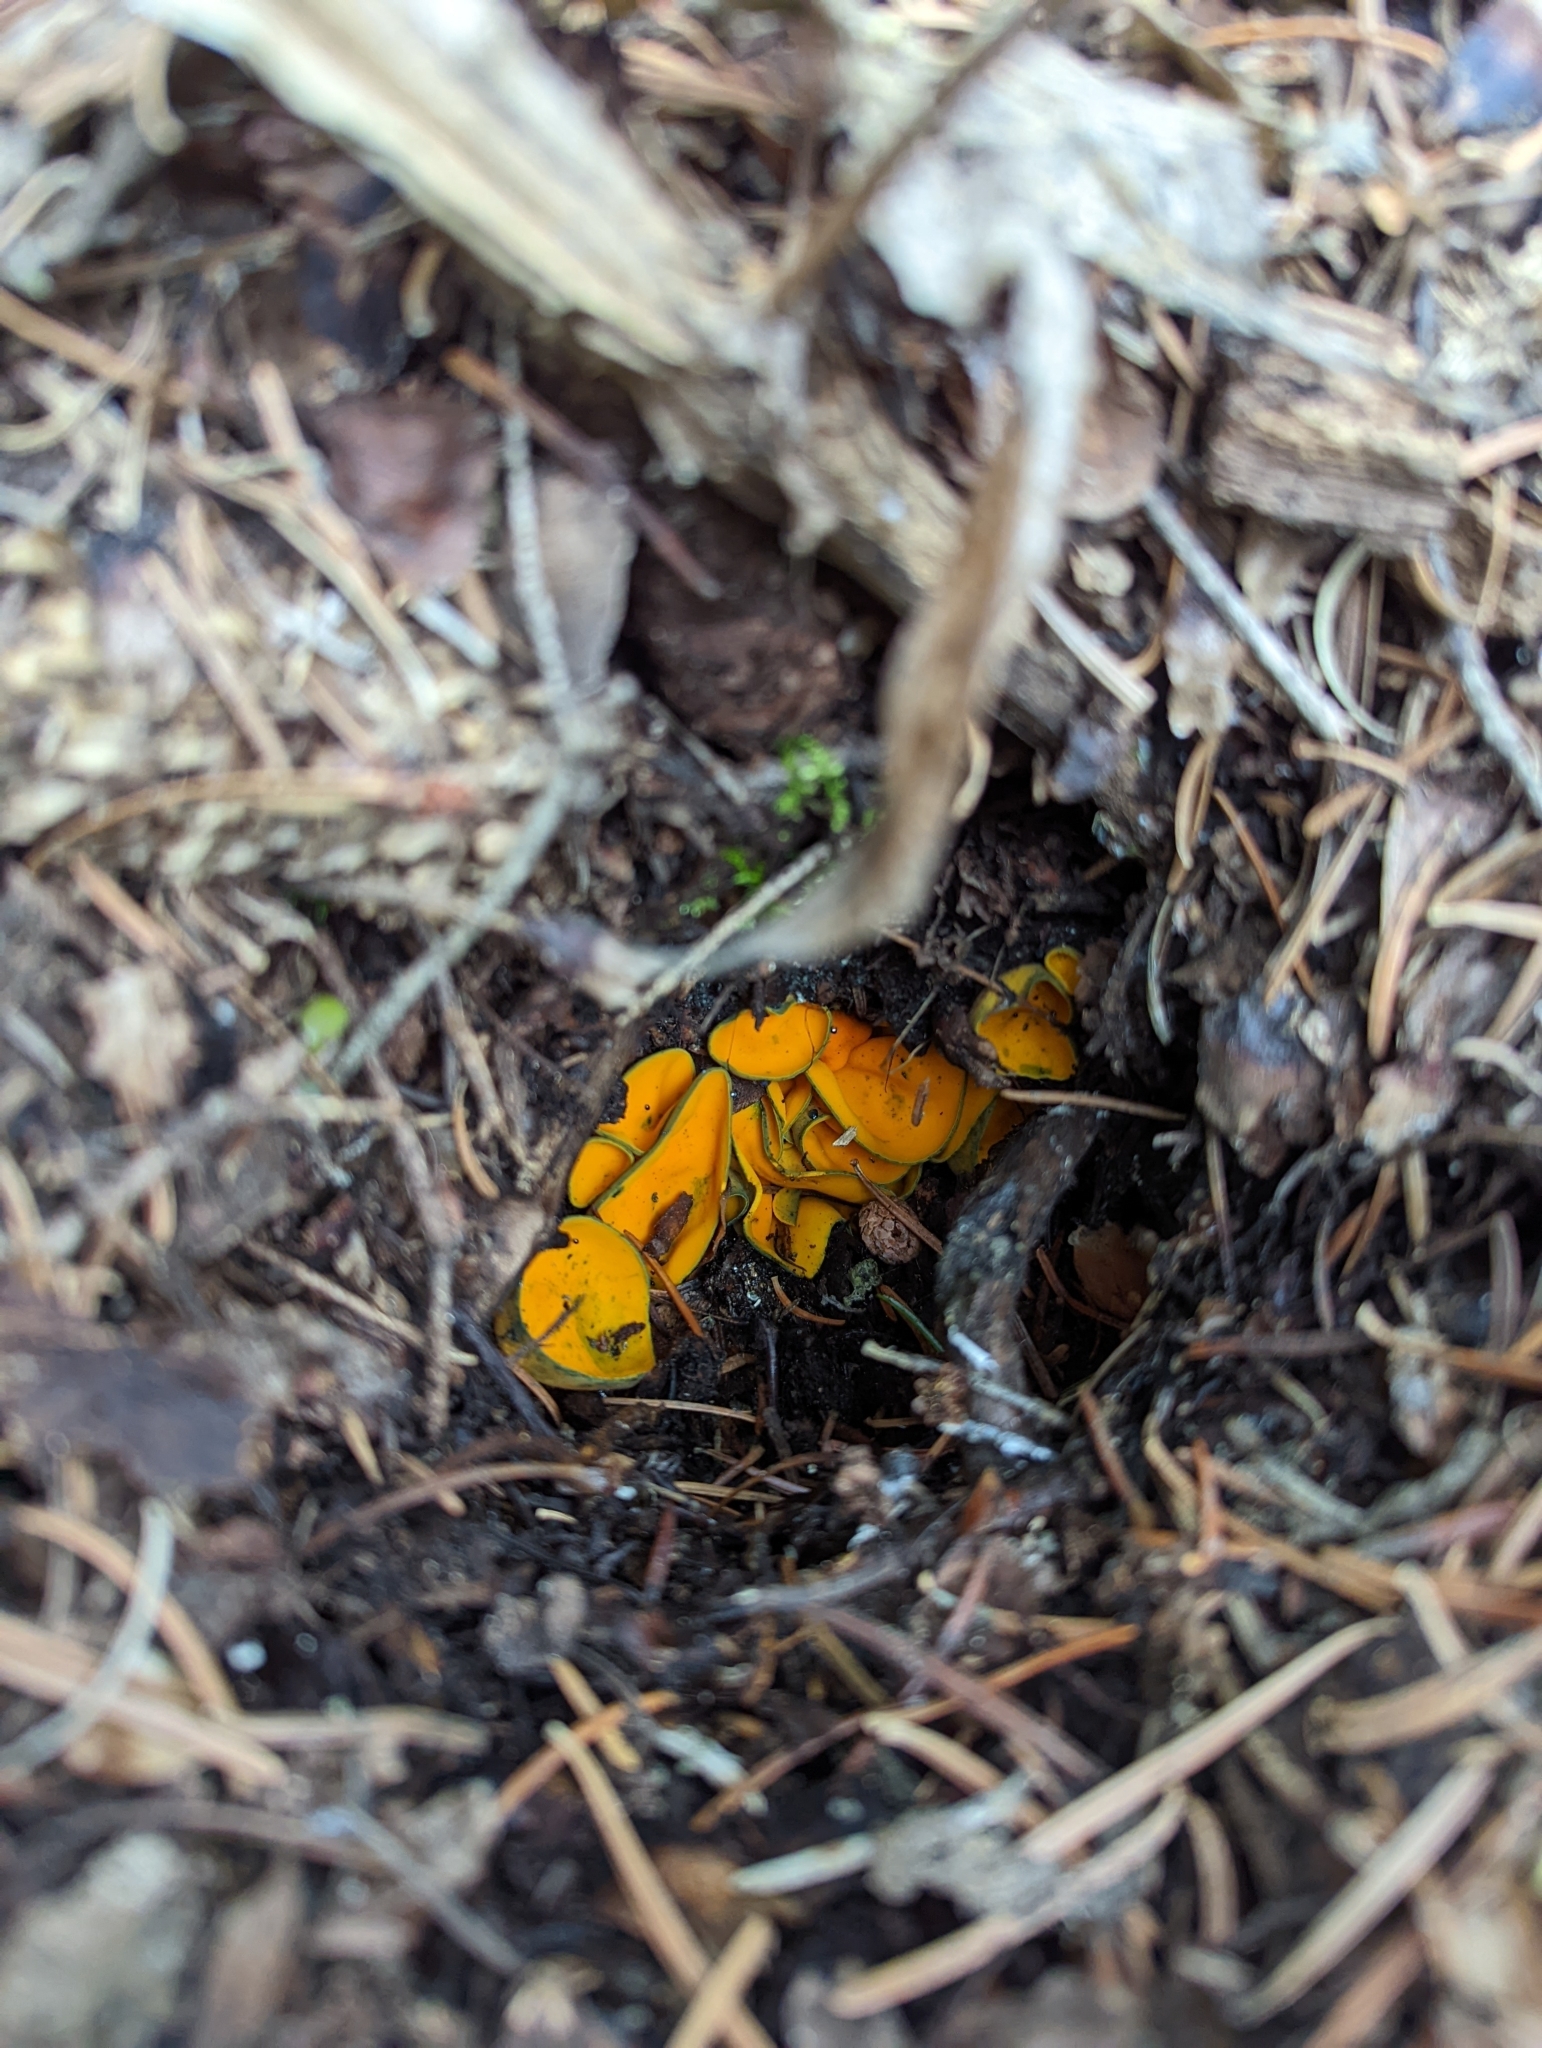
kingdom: Fungi
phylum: Ascomycota
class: Pezizomycetes
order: Pezizales
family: Caloscyphaceae
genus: Caloscypha
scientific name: Caloscypha fulgens
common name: Golden cup
